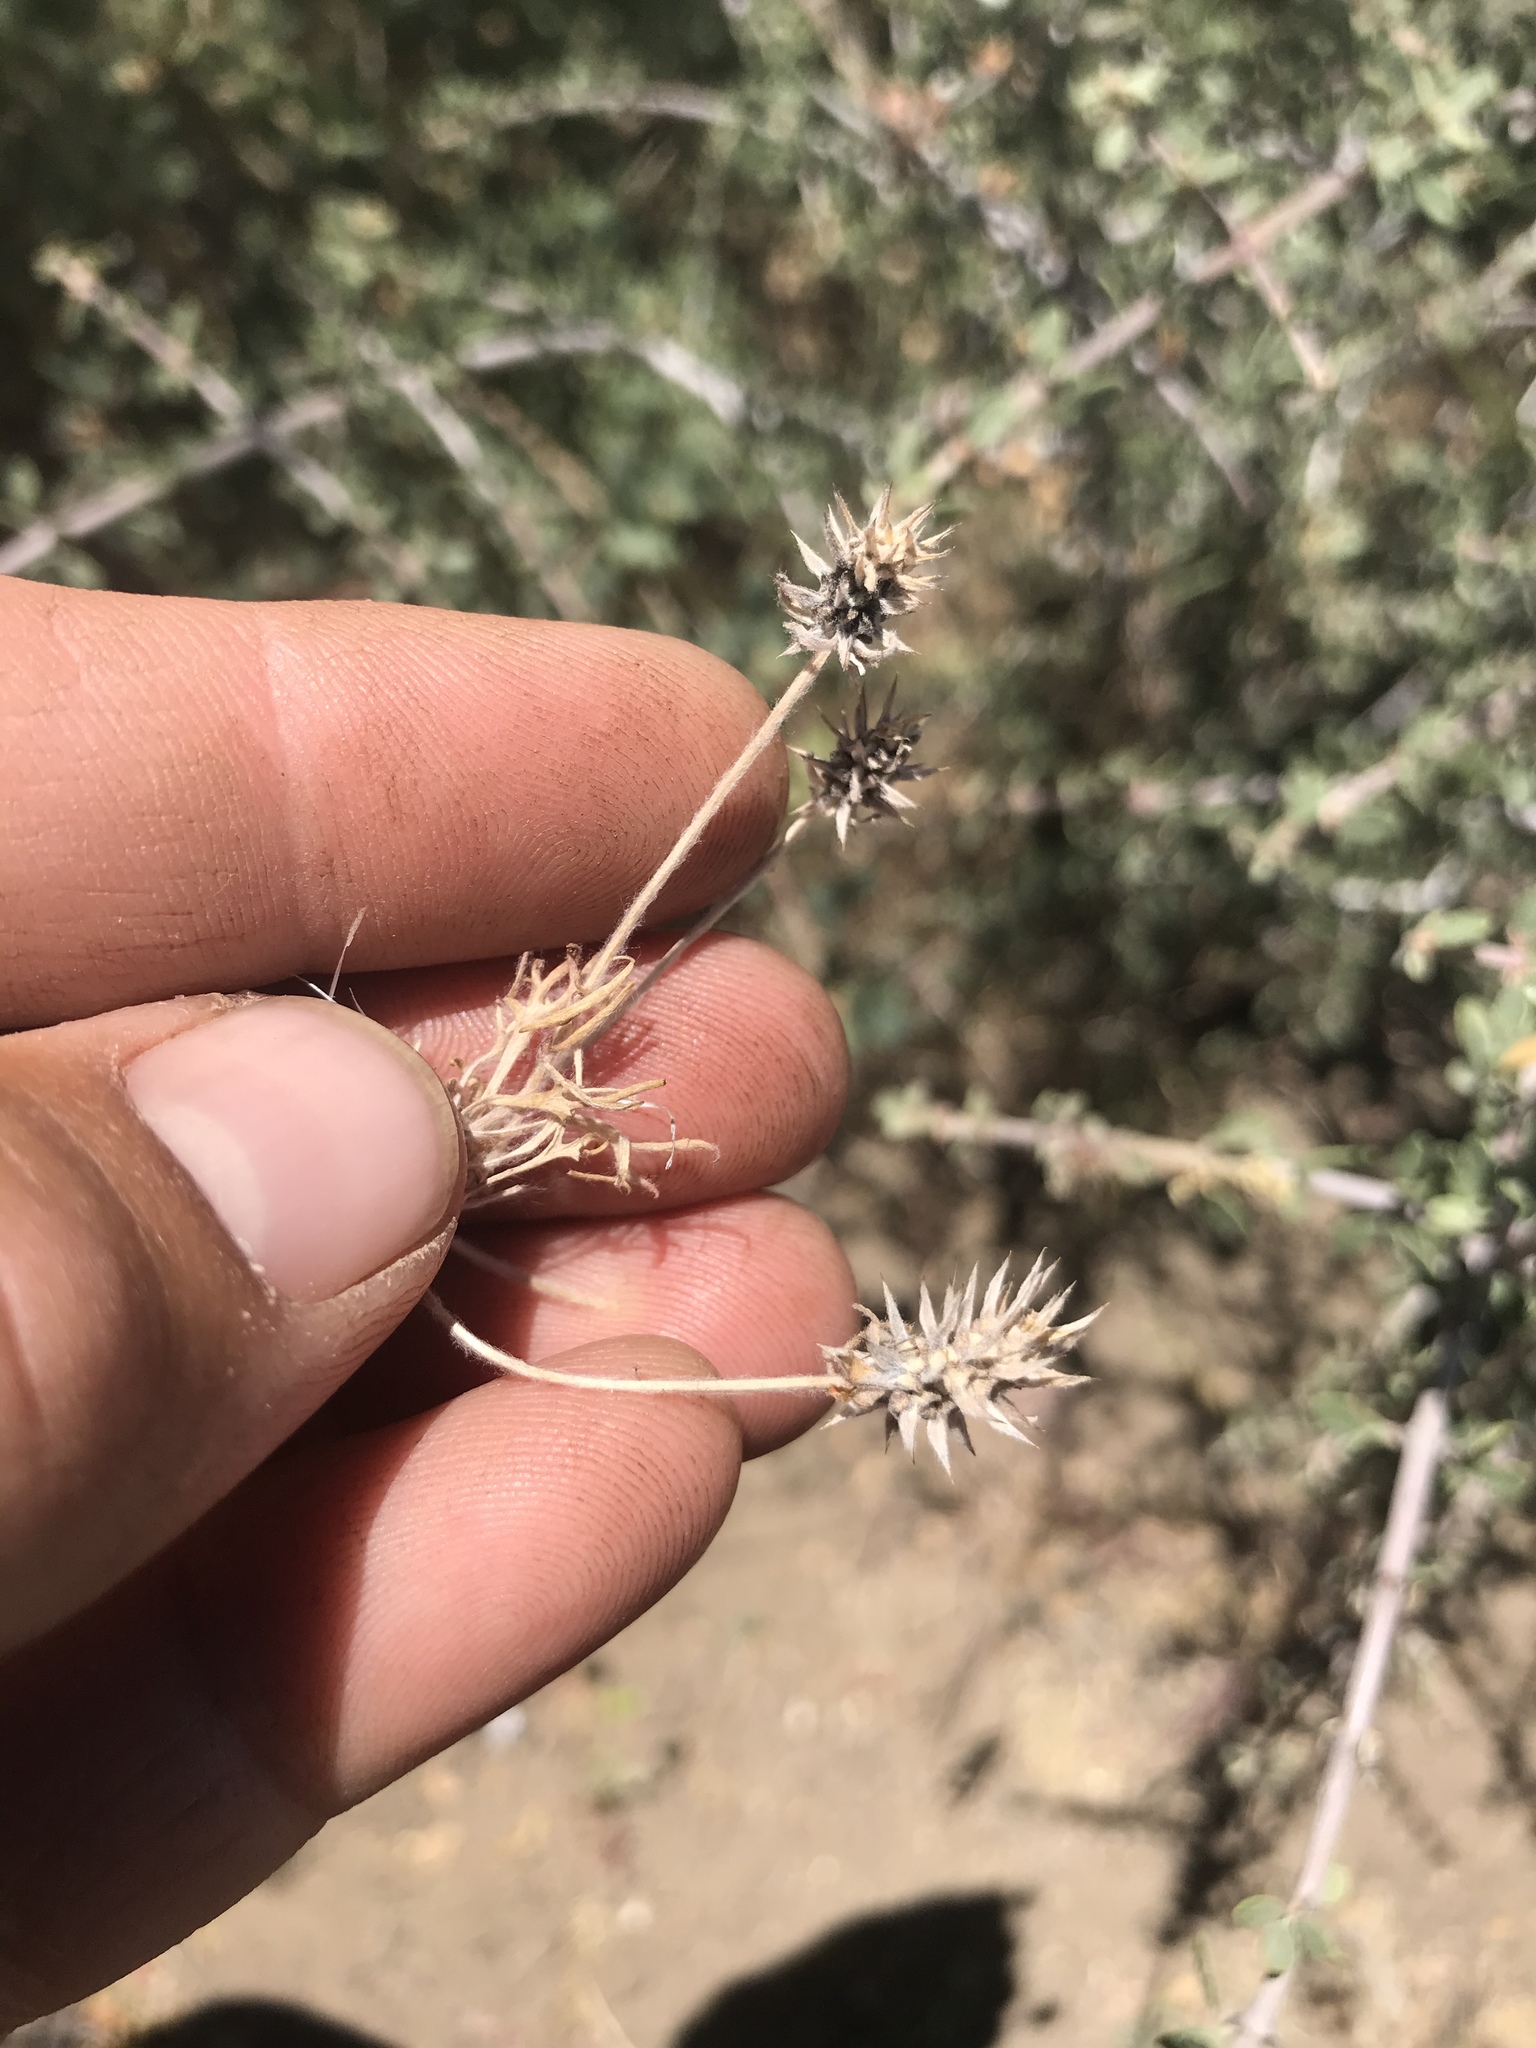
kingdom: Plantae
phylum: Tracheophyta
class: Magnoliopsida
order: Ranunculales
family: Ranunculaceae
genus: Ceratocephala
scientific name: Ceratocephala orthoceras
